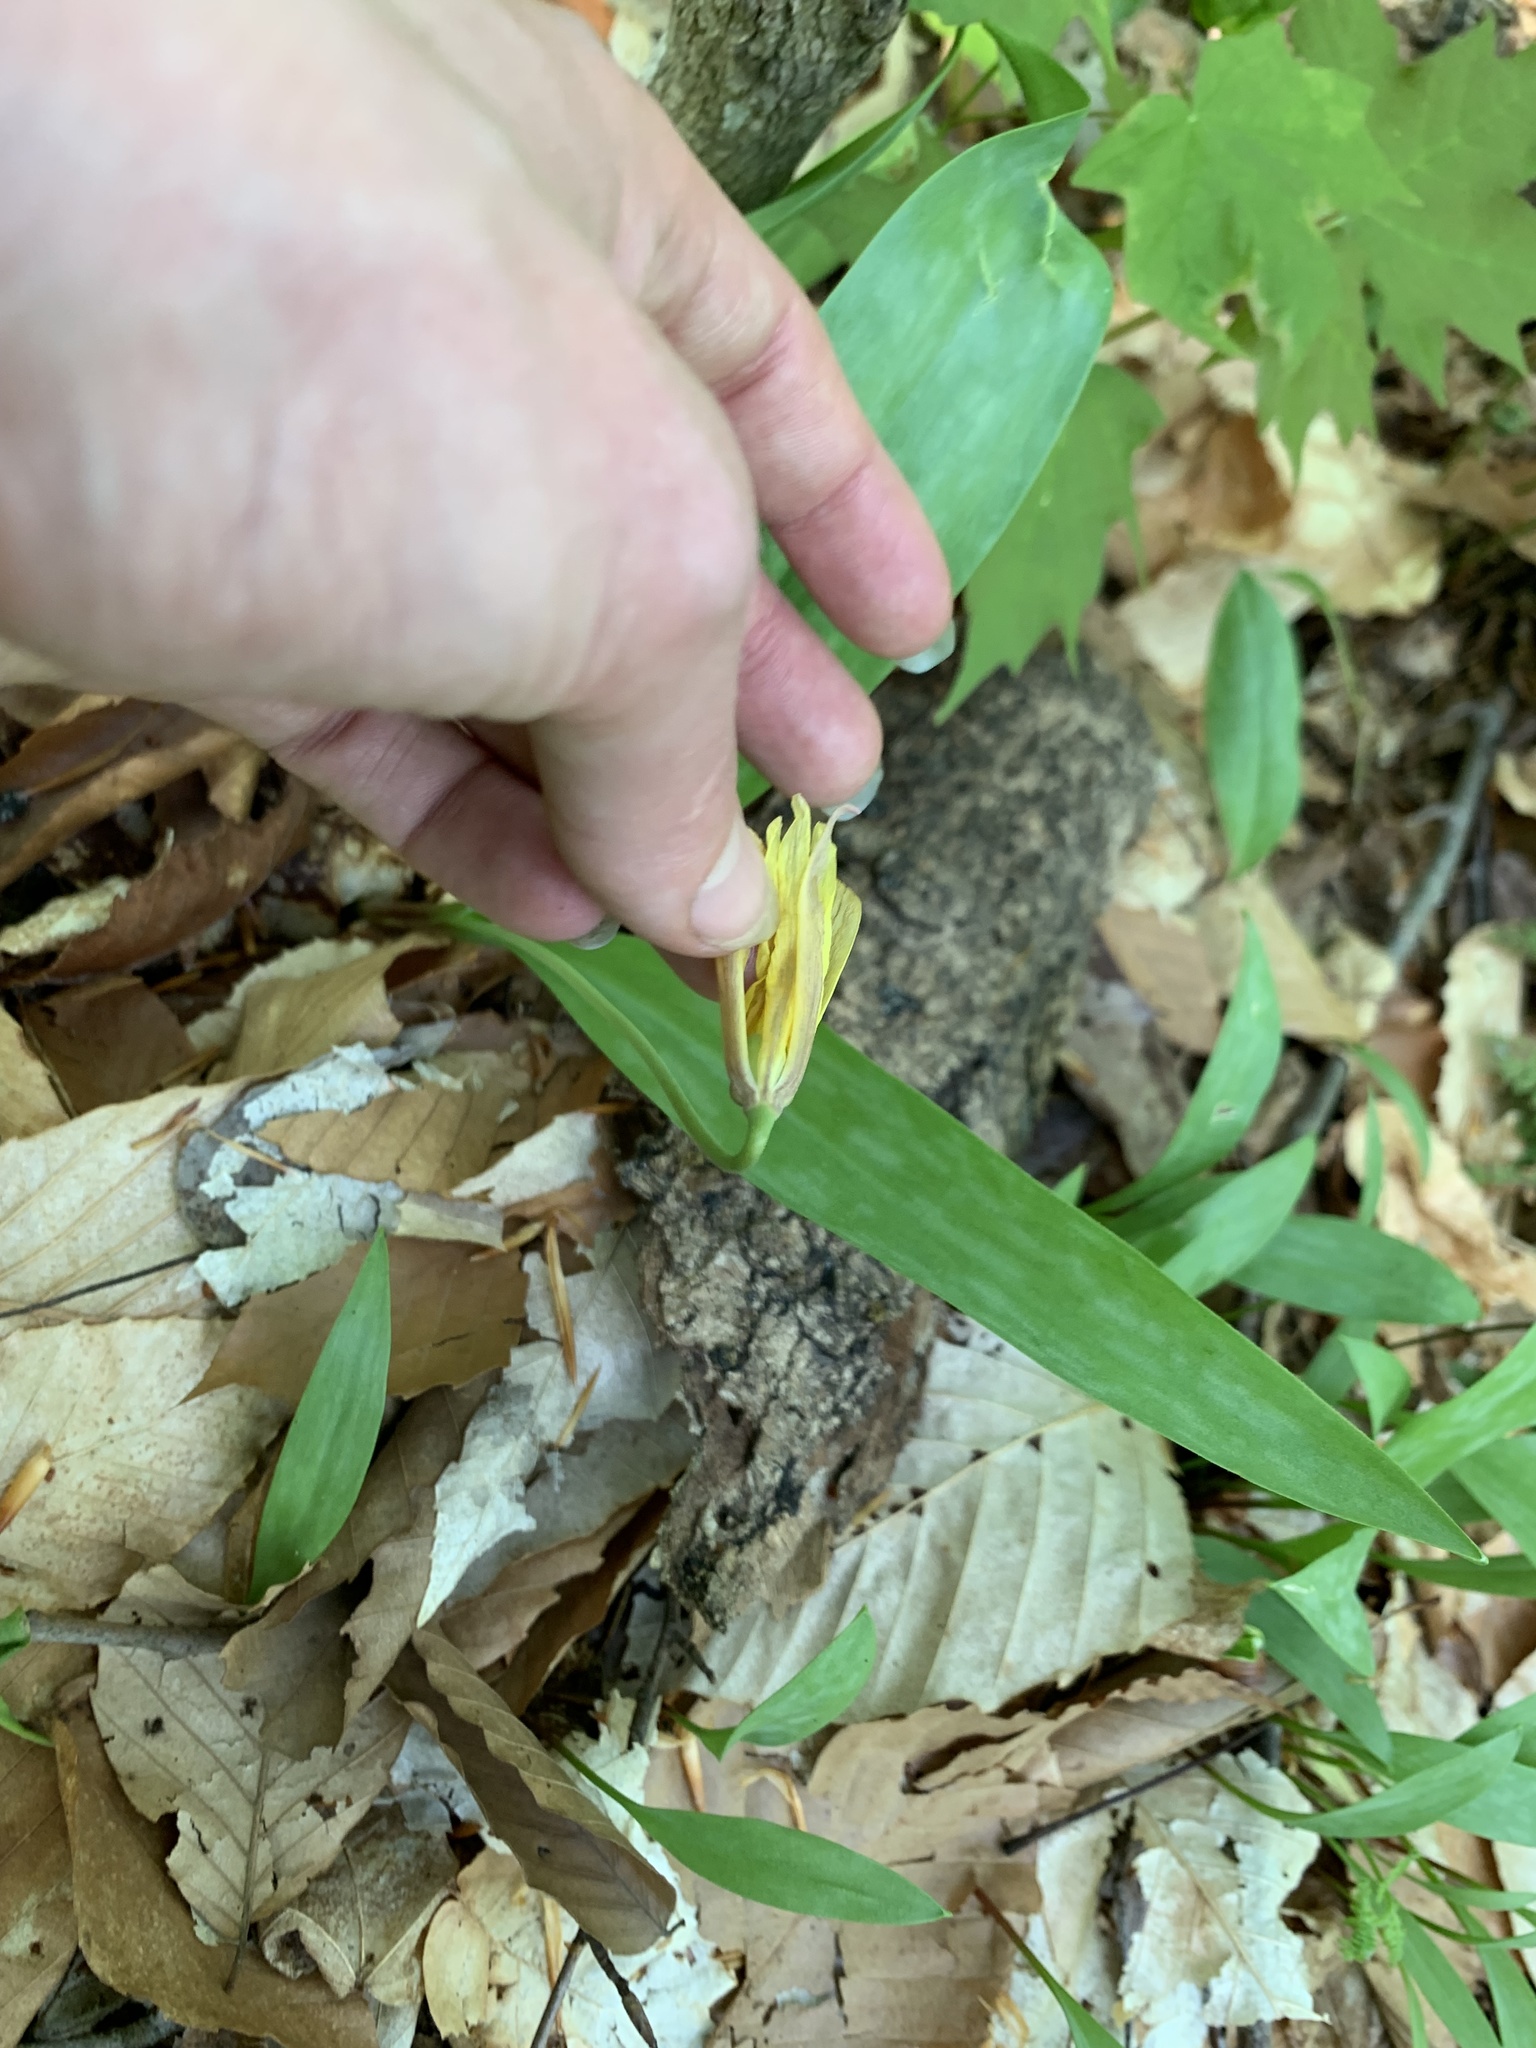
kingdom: Plantae
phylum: Tracheophyta
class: Liliopsida
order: Liliales
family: Liliaceae
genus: Erythronium
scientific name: Erythronium americanum
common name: Yellow adder's-tongue
